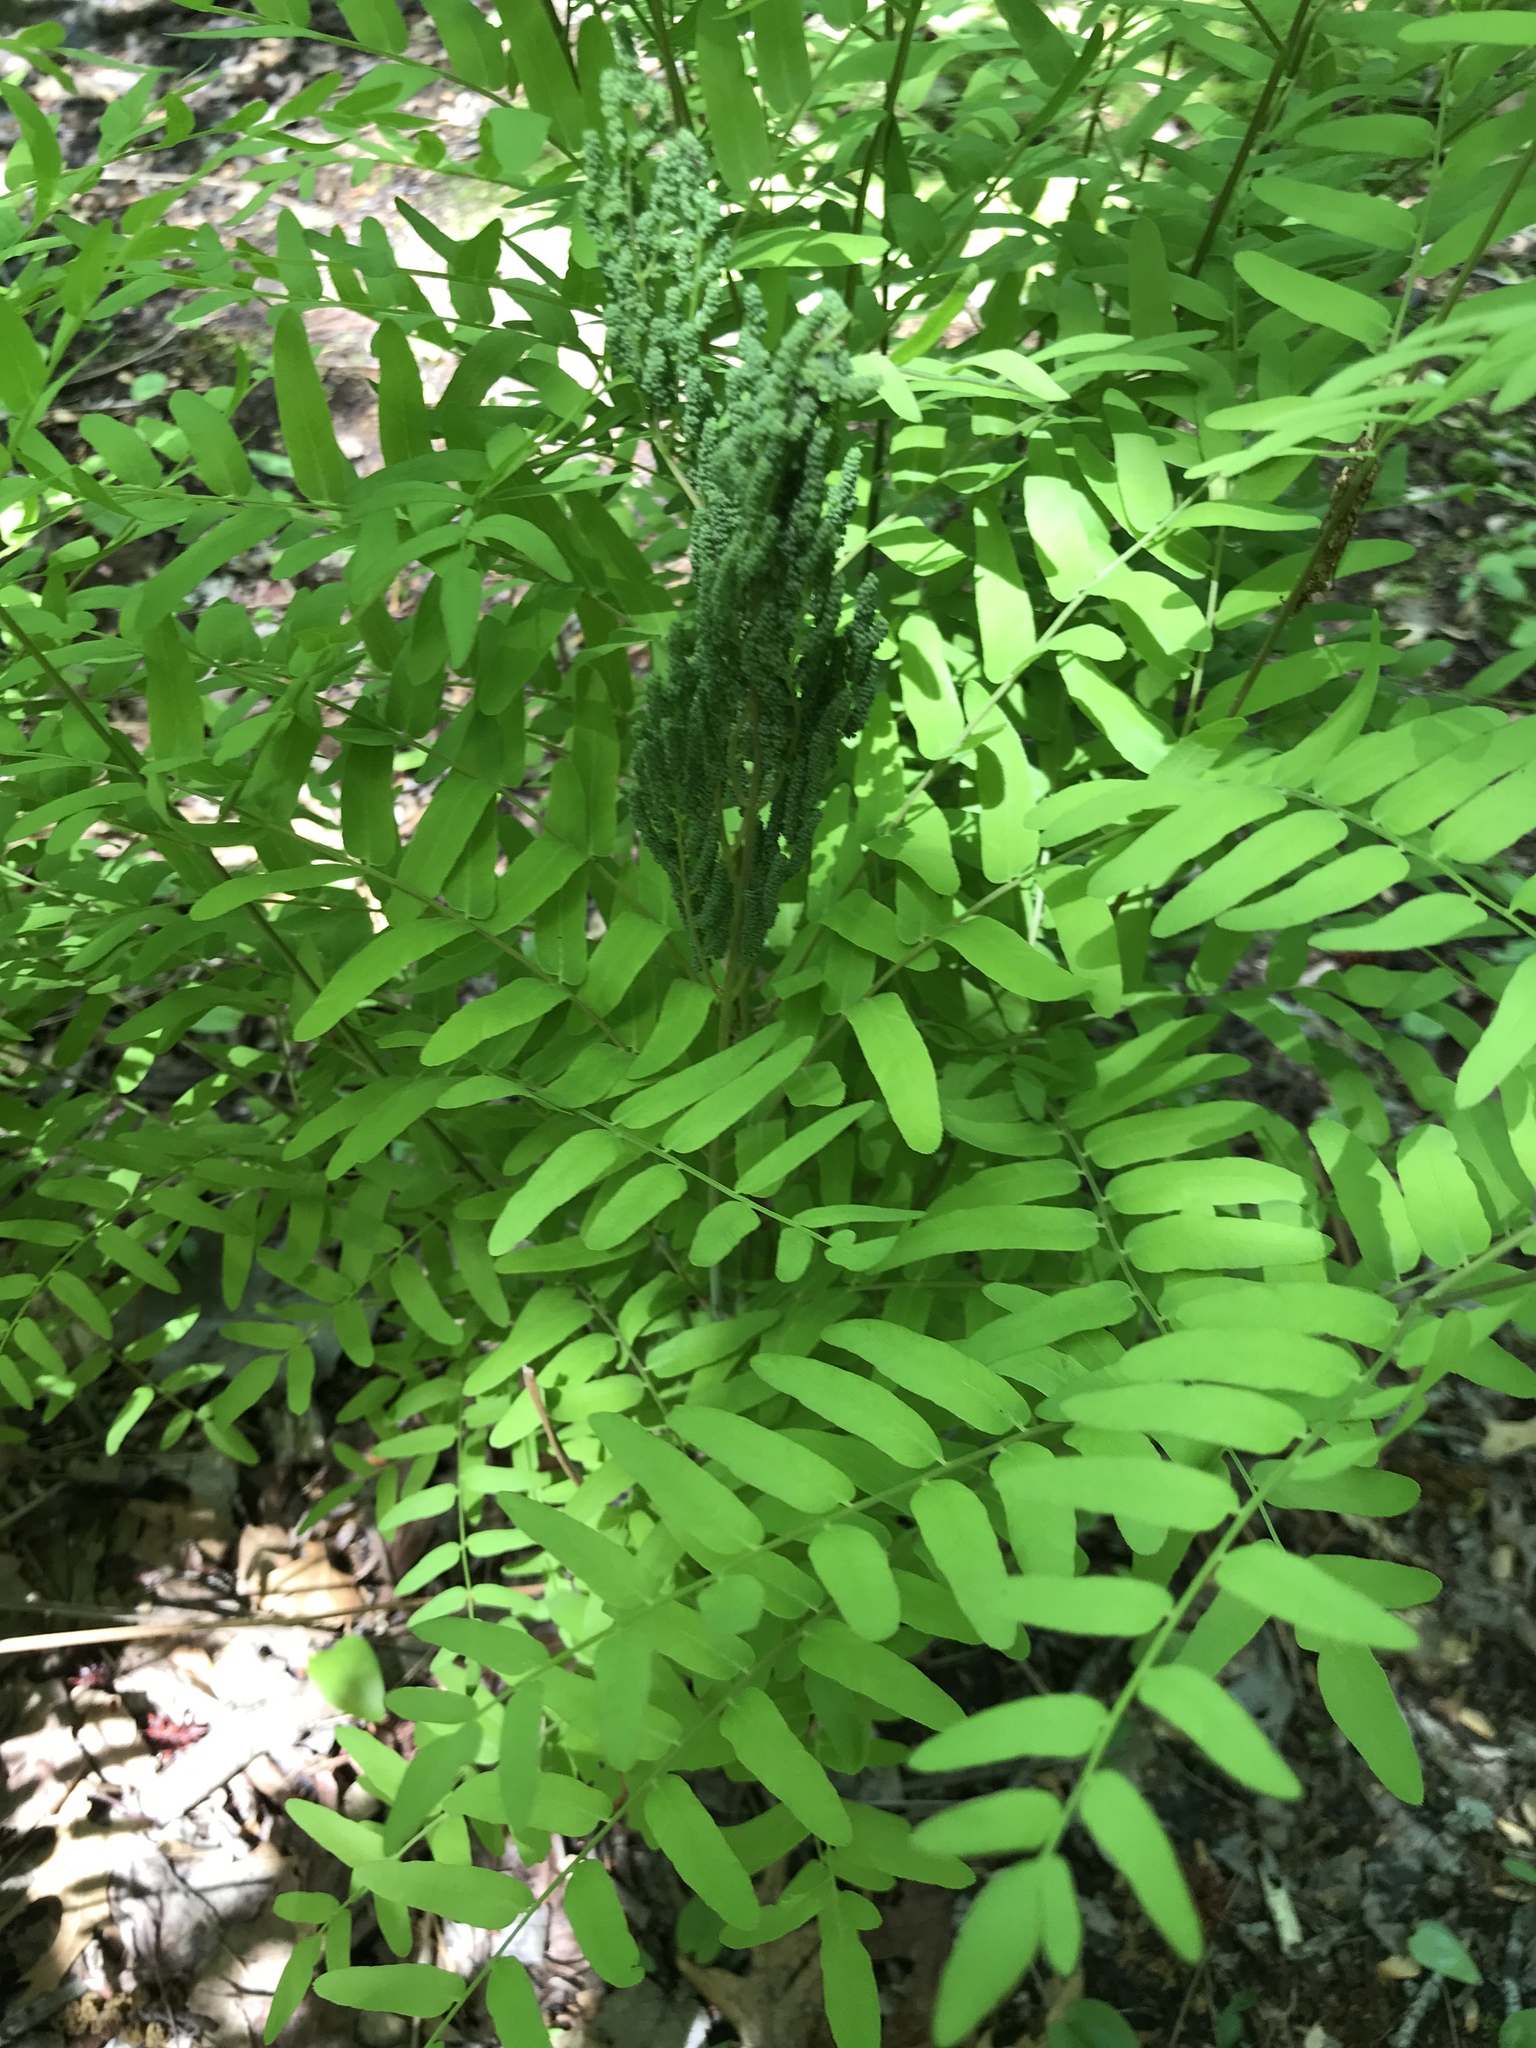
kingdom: Plantae
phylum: Tracheophyta
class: Polypodiopsida
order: Osmundales
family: Osmundaceae
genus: Osmunda
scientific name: Osmunda spectabilis
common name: American royal fern
